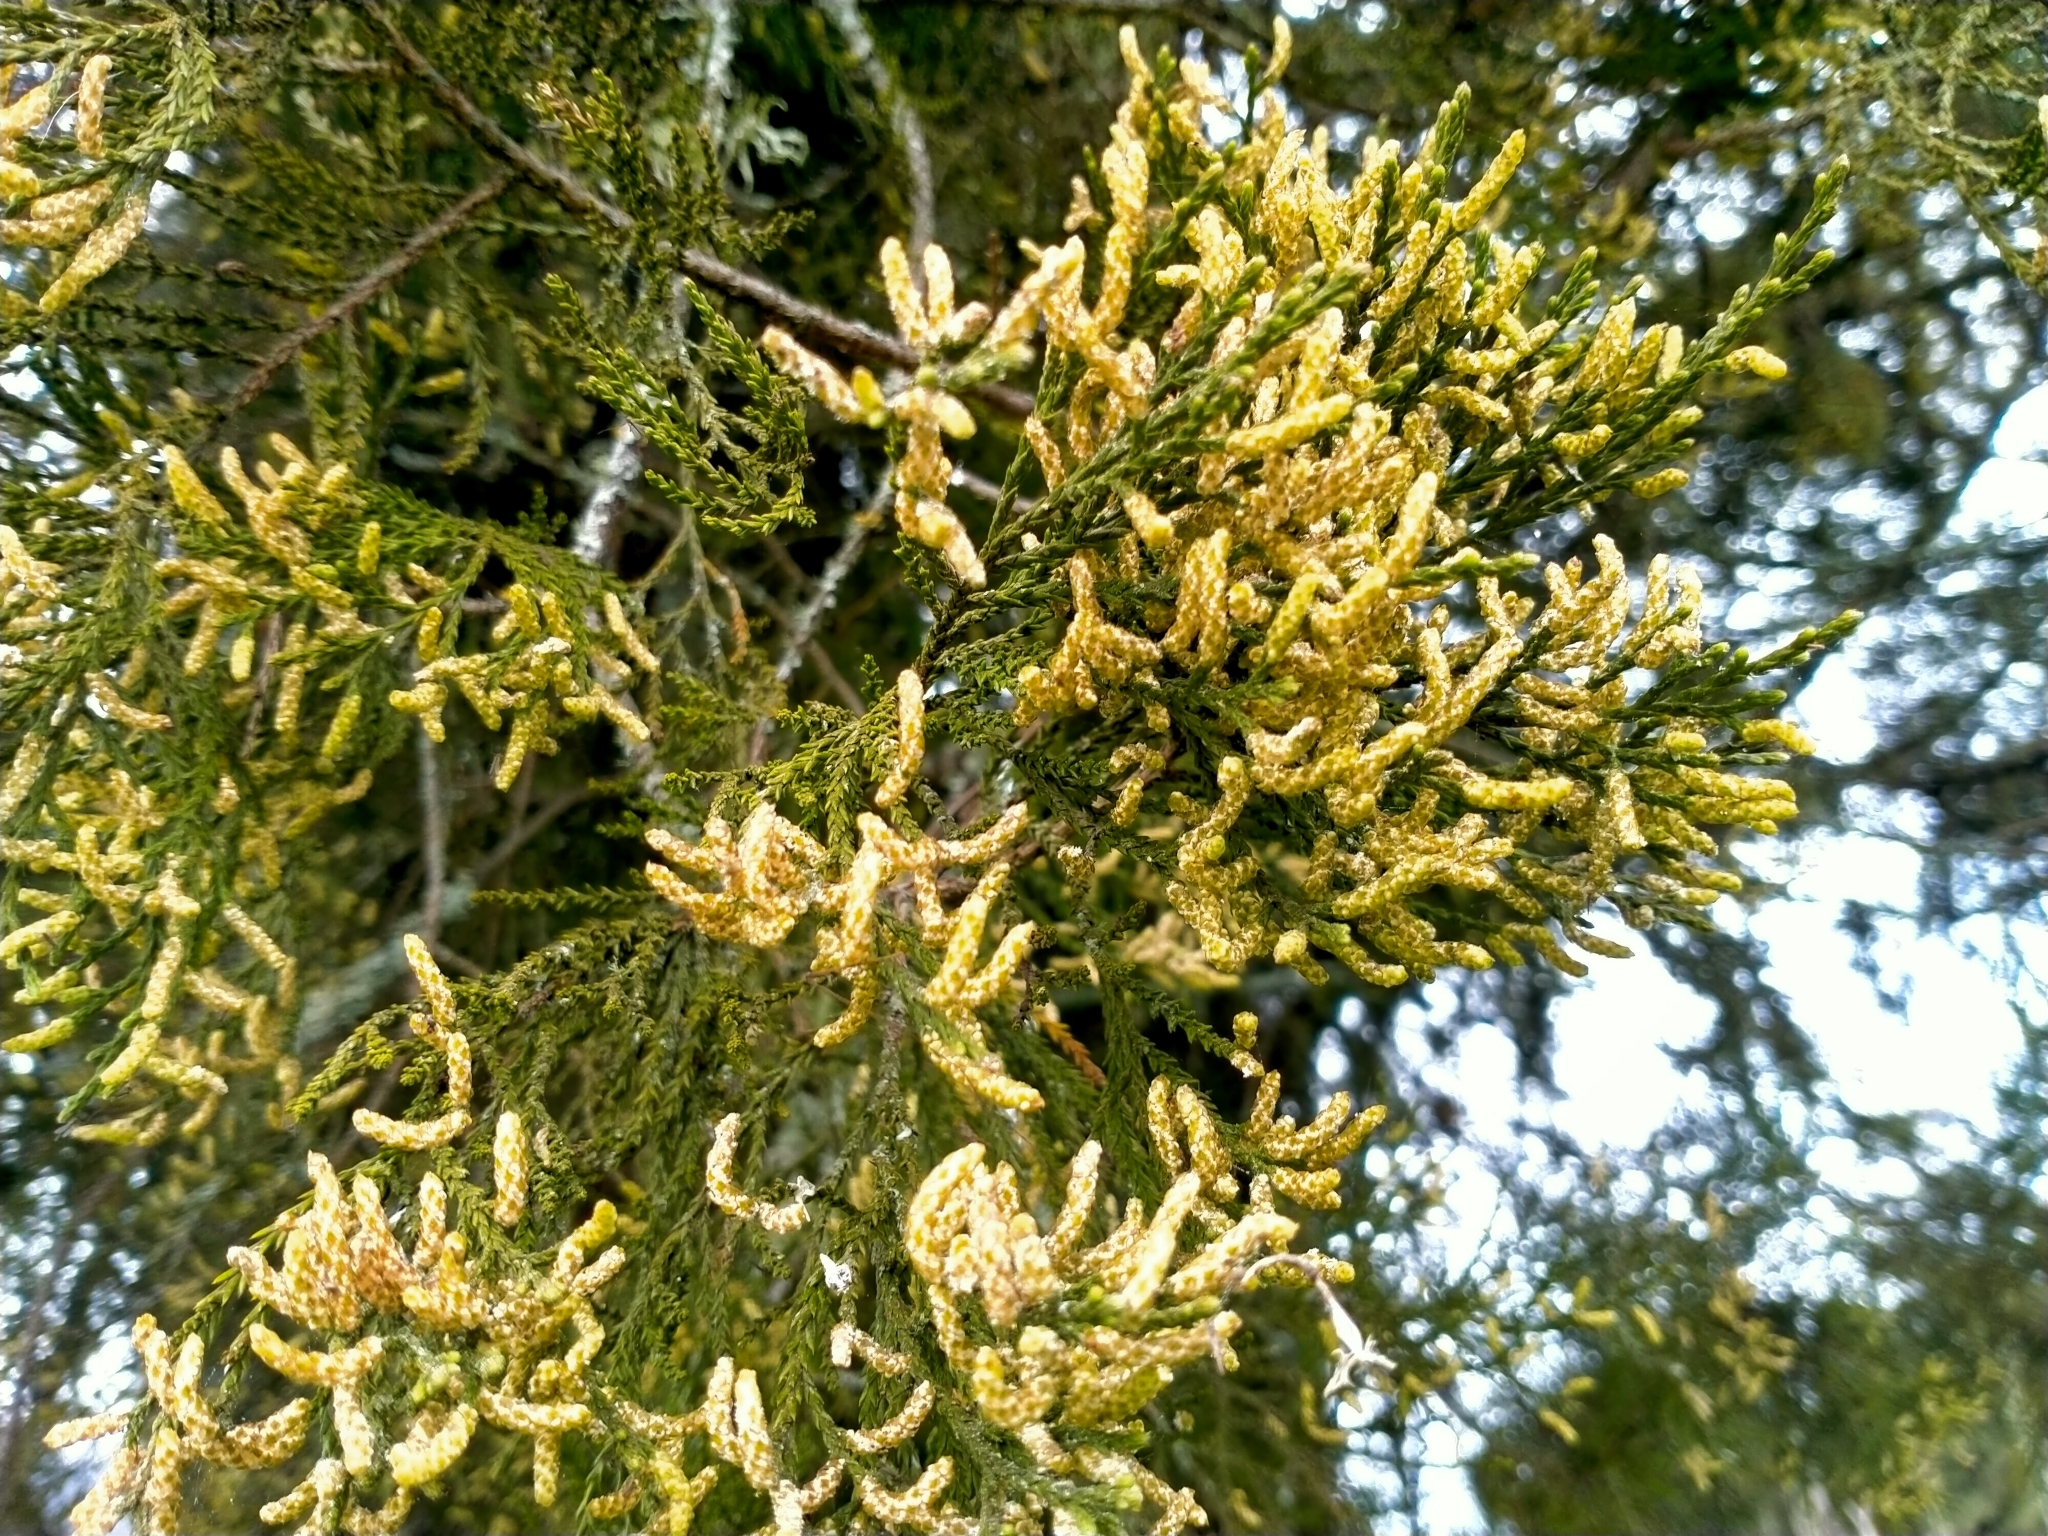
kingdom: Plantae
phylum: Tracheophyta
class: Pinopsida
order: Pinales
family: Podocarpaceae
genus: Dacrycarpus
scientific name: Dacrycarpus dacrydioides
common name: White pine
